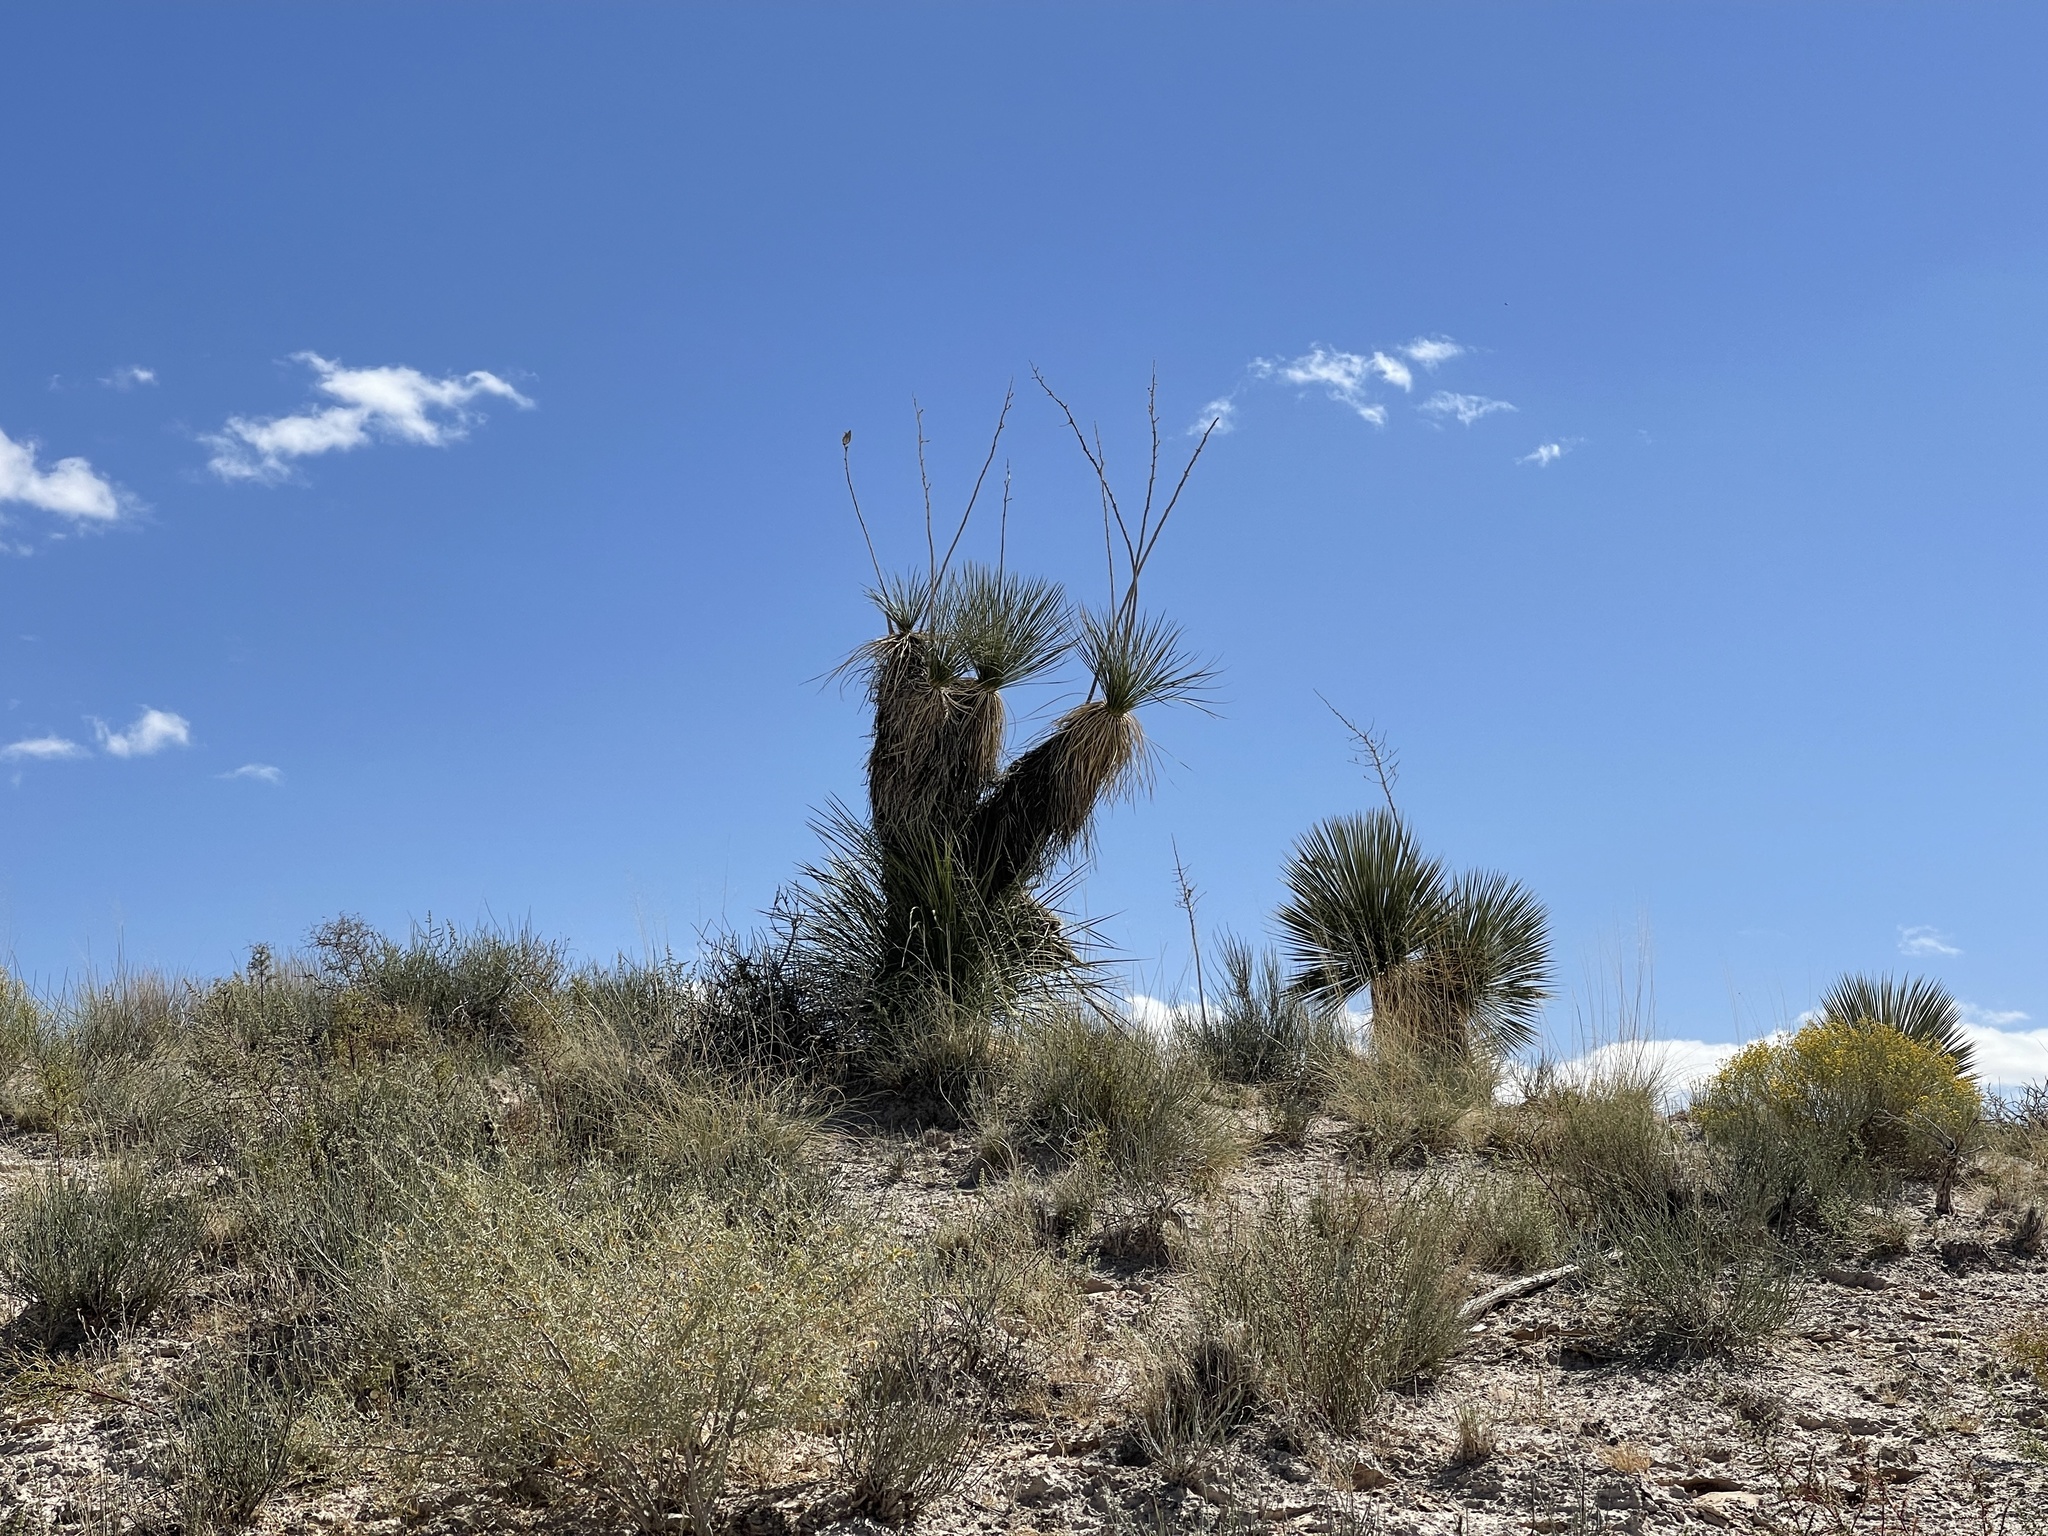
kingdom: Plantae
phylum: Tracheophyta
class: Liliopsida
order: Asparagales
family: Asparagaceae
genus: Yucca
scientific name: Yucca elata
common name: Palmella
